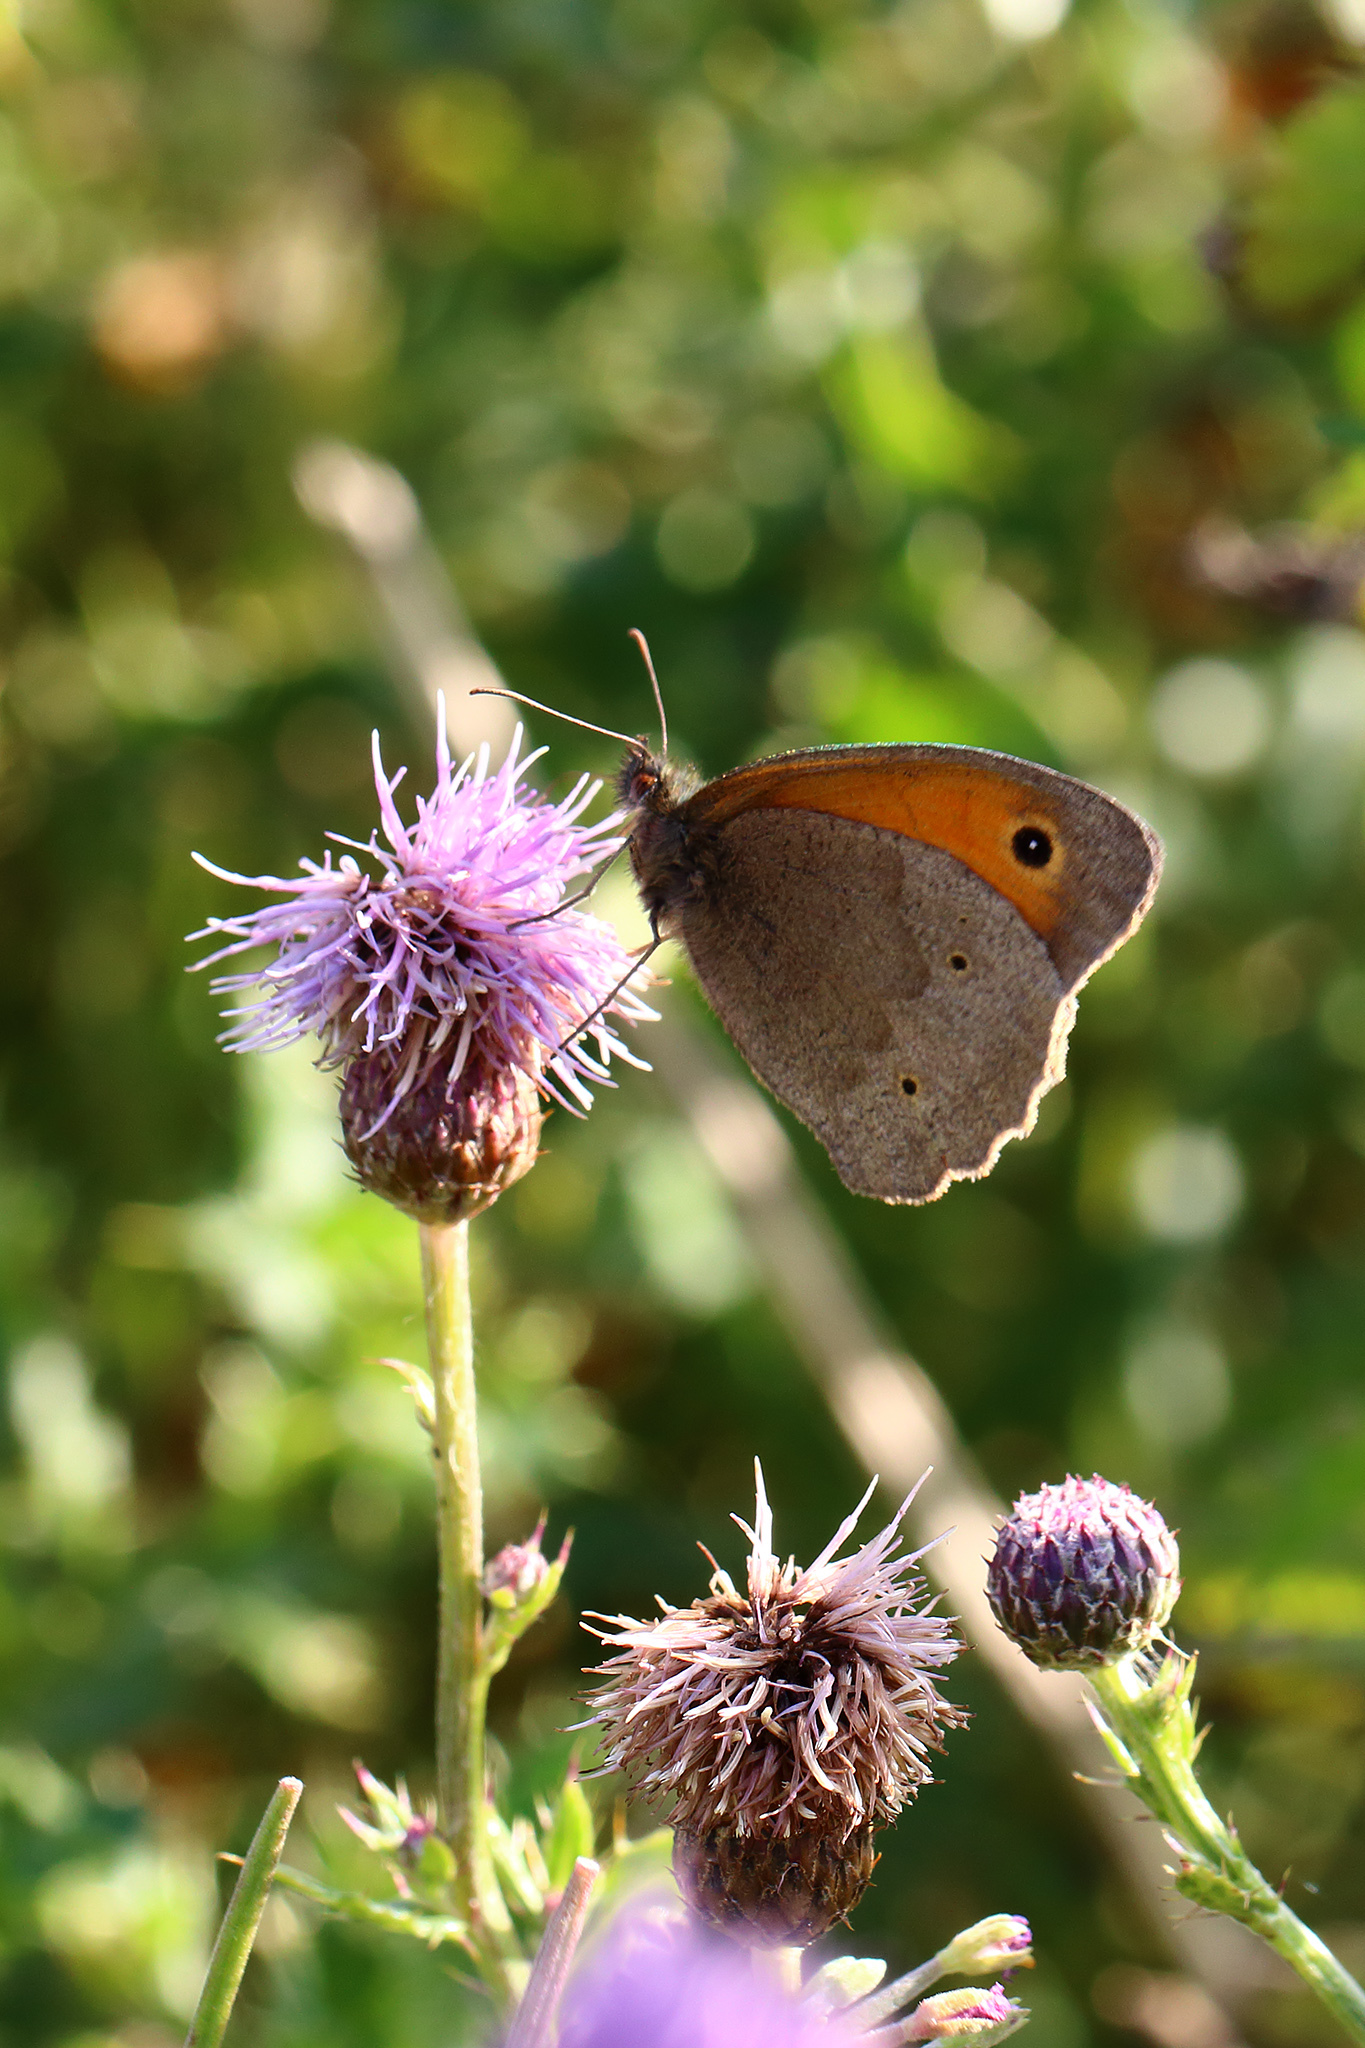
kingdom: Animalia
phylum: Arthropoda
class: Insecta
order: Lepidoptera
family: Nymphalidae
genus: Maniola
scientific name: Maniola jurtina
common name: Meadow brown
